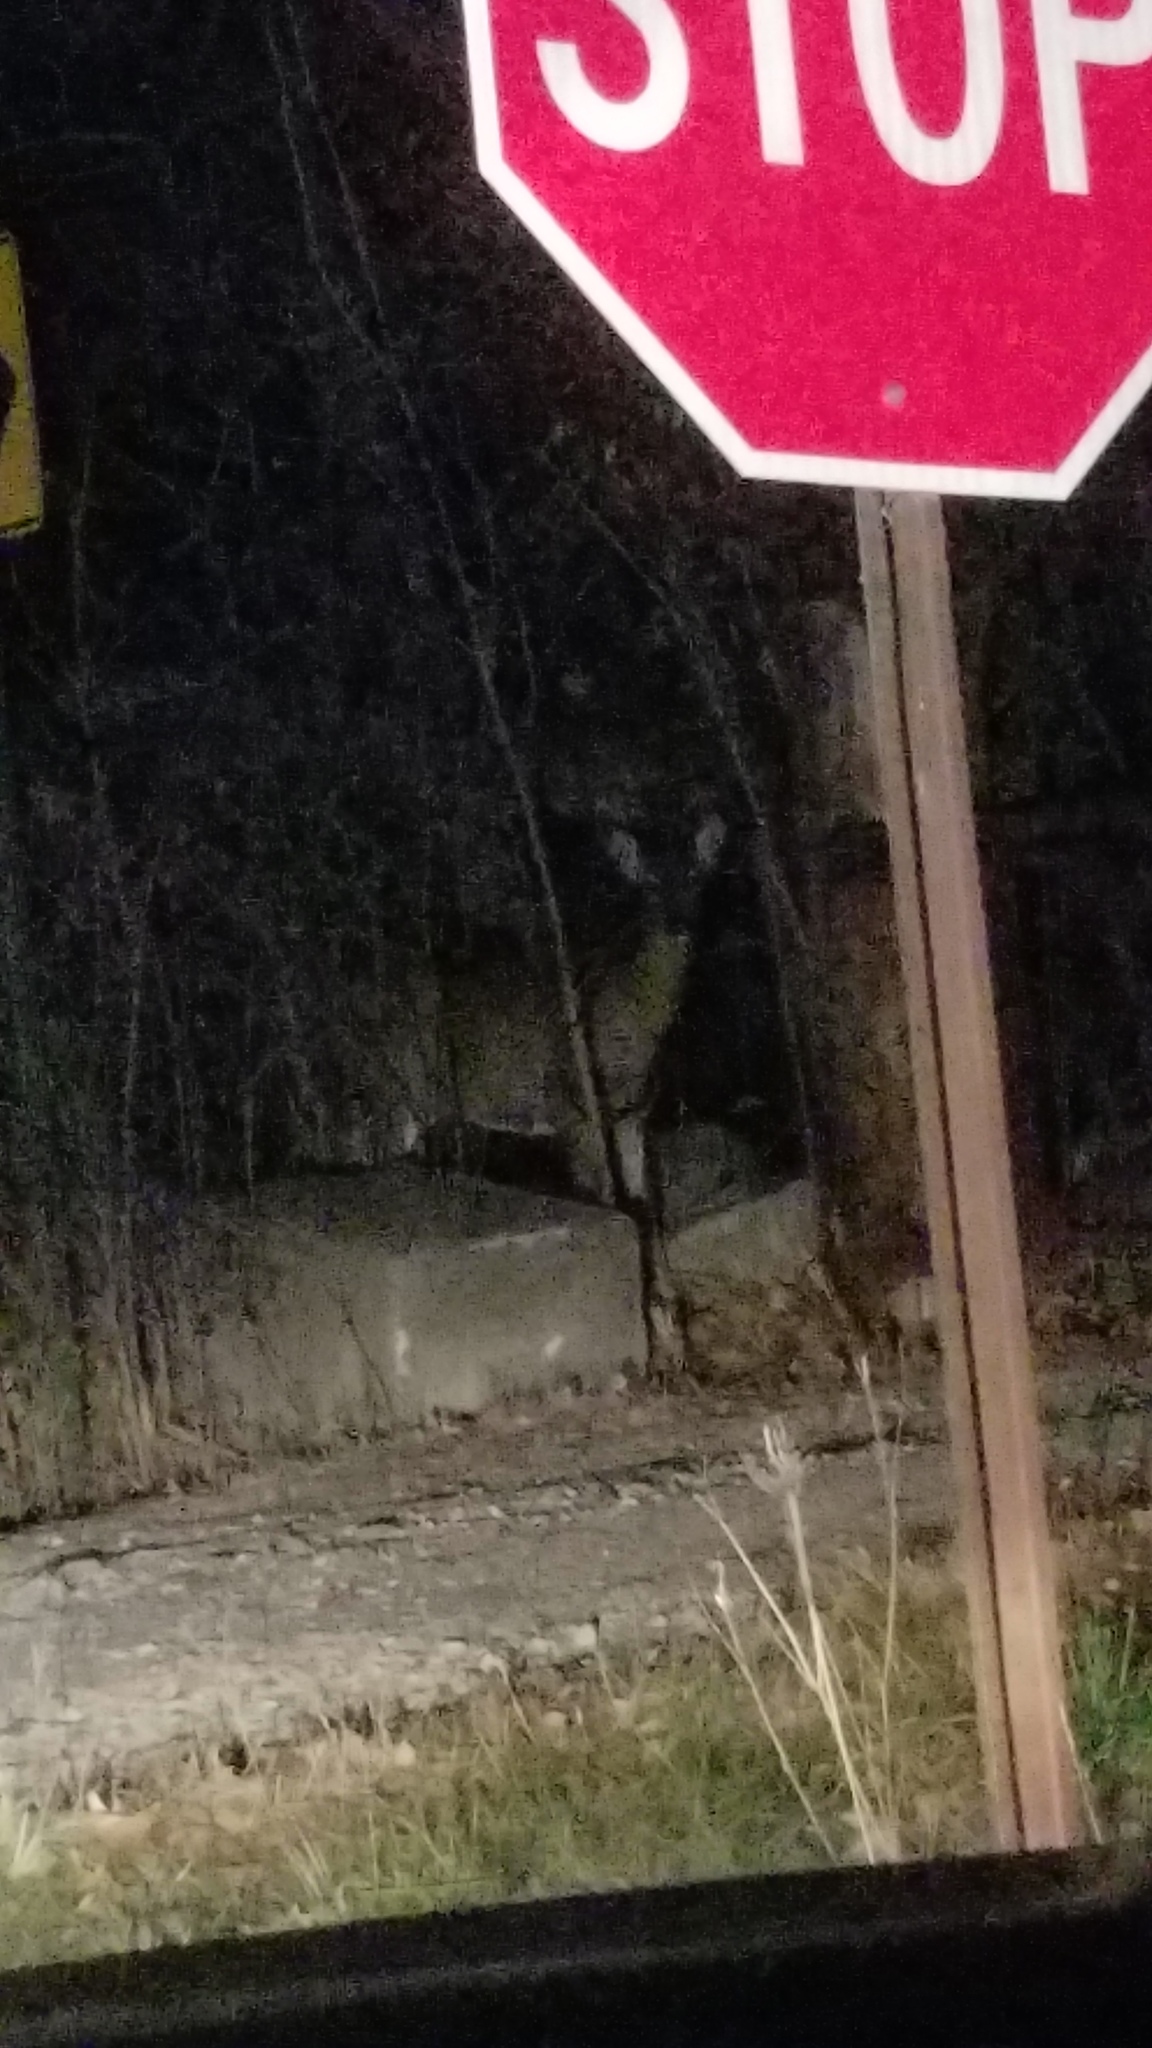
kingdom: Animalia
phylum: Chordata
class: Mammalia
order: Artiodactyla
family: Cervidae
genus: Odocoileus
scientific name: Odocoileus virginianus
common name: White-tailed deer
